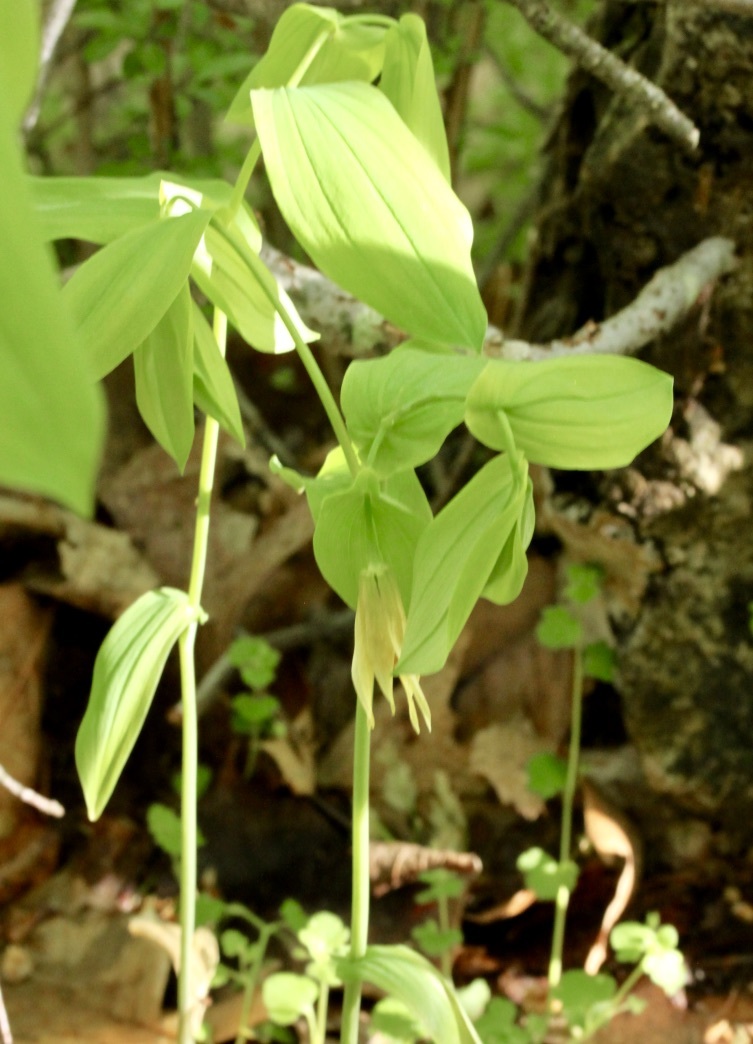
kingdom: Plantae
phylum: Tracheophyta
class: Liliopsida
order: Liliales
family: Colchicaceae
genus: Uvularia
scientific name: Uvularia grandiflora
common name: Bellwort
